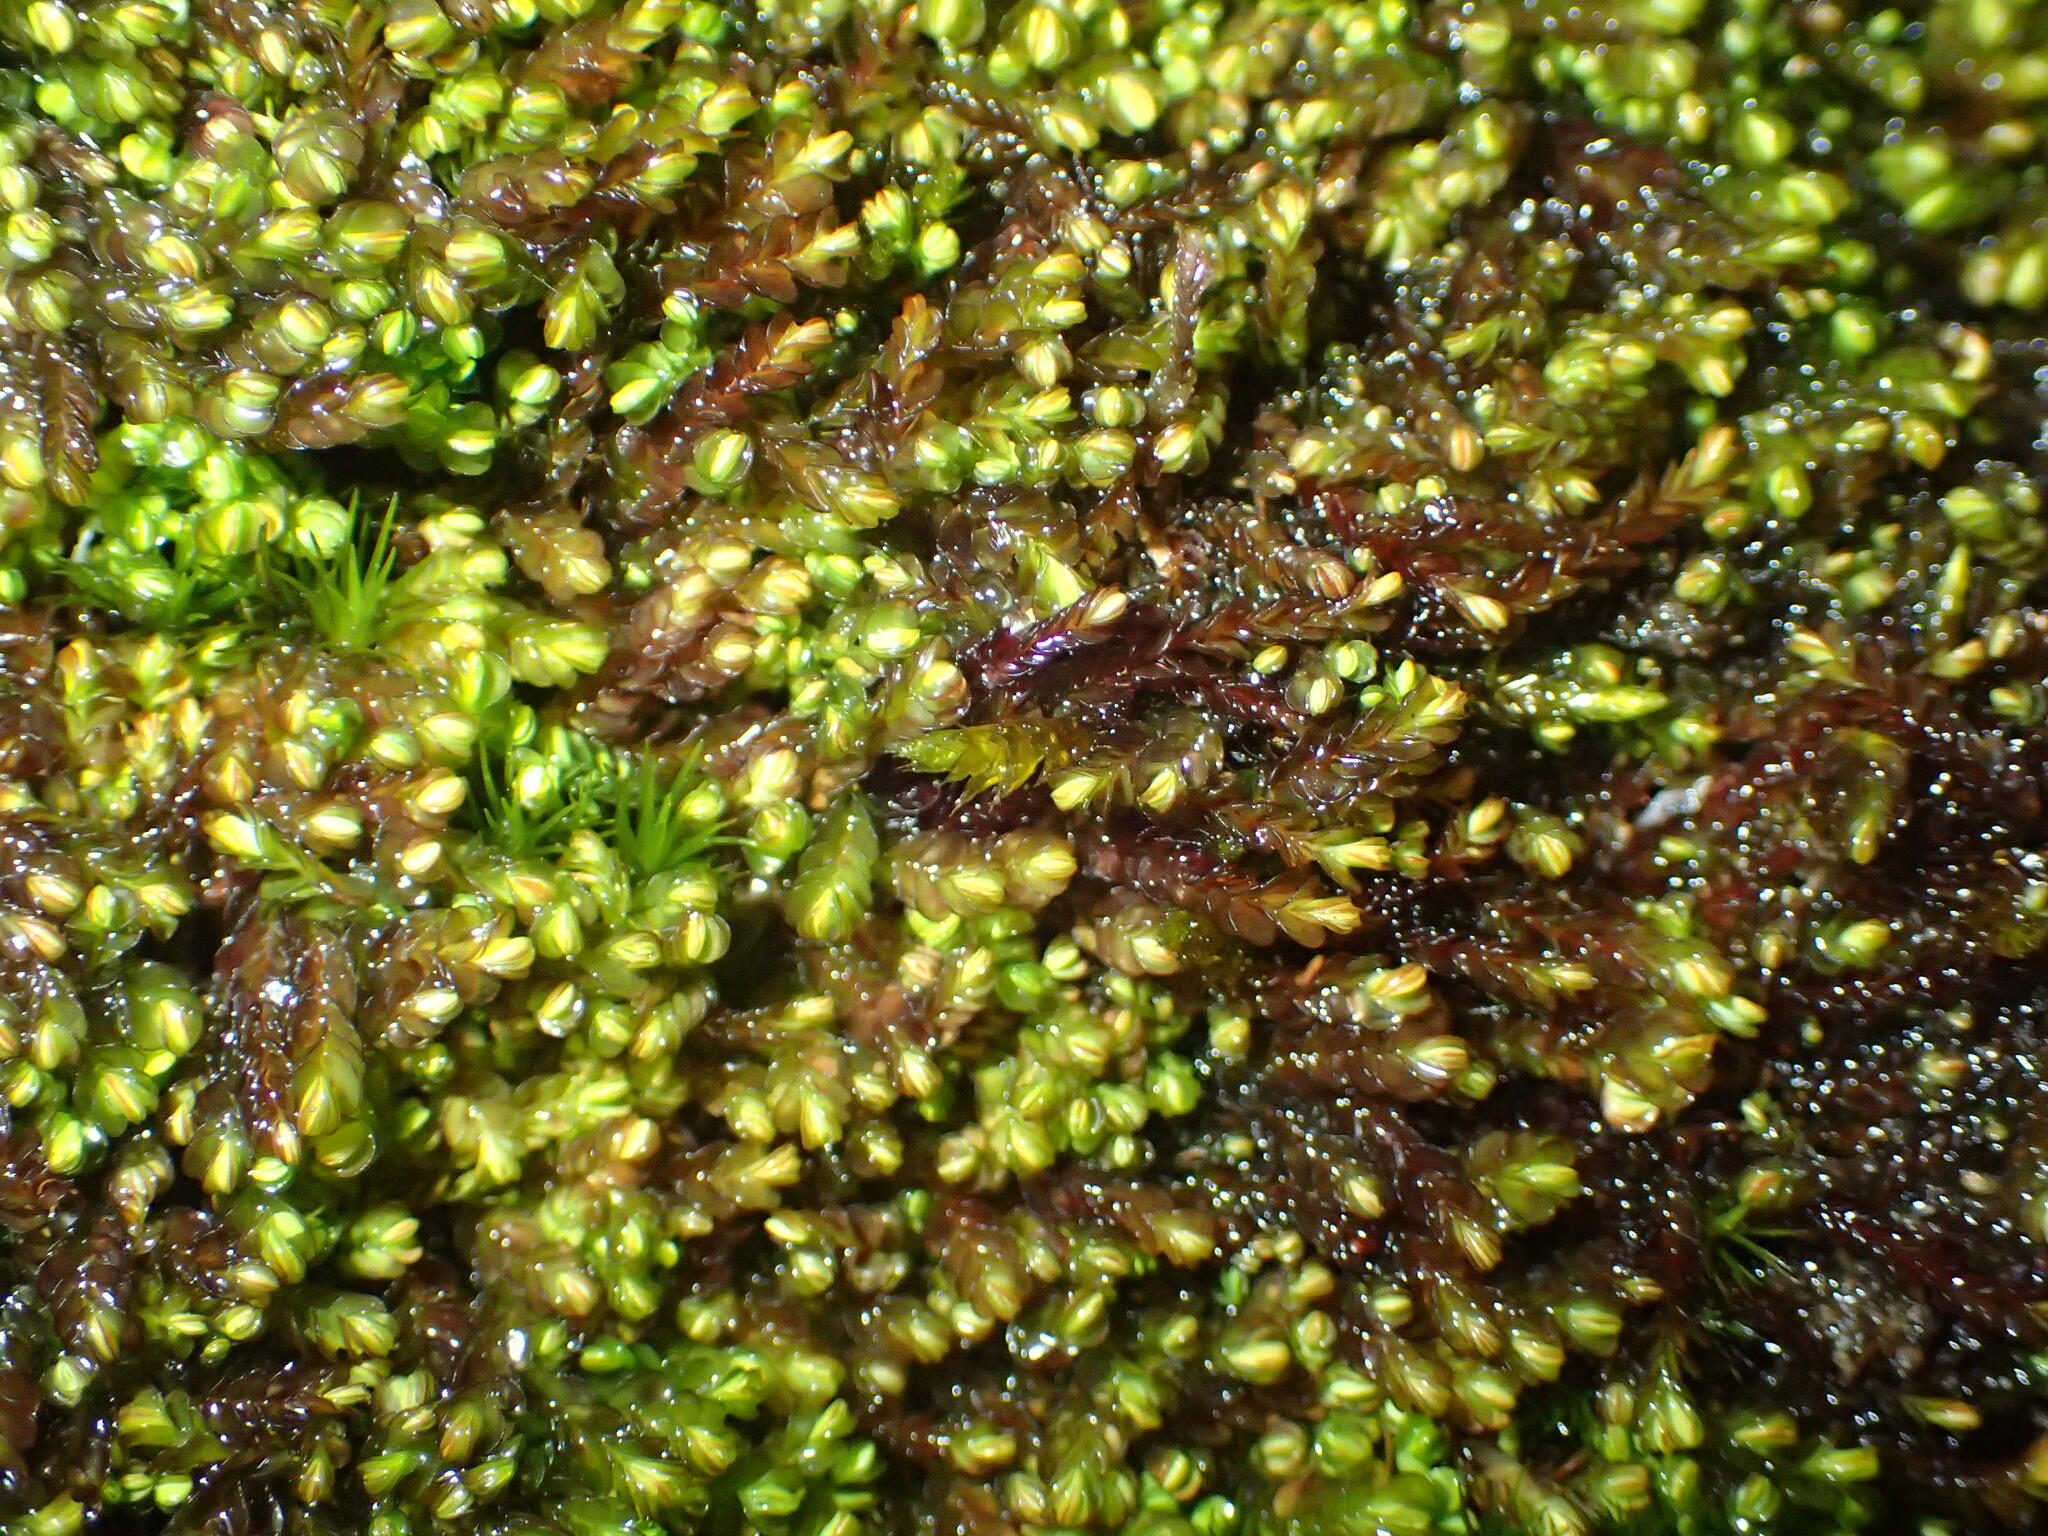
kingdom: Plantae
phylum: Marchantiophyta
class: Jungermanniopsida
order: Jungermanniales
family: Adelanthaceae
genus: Syzygiella
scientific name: Syzygiella colorata
